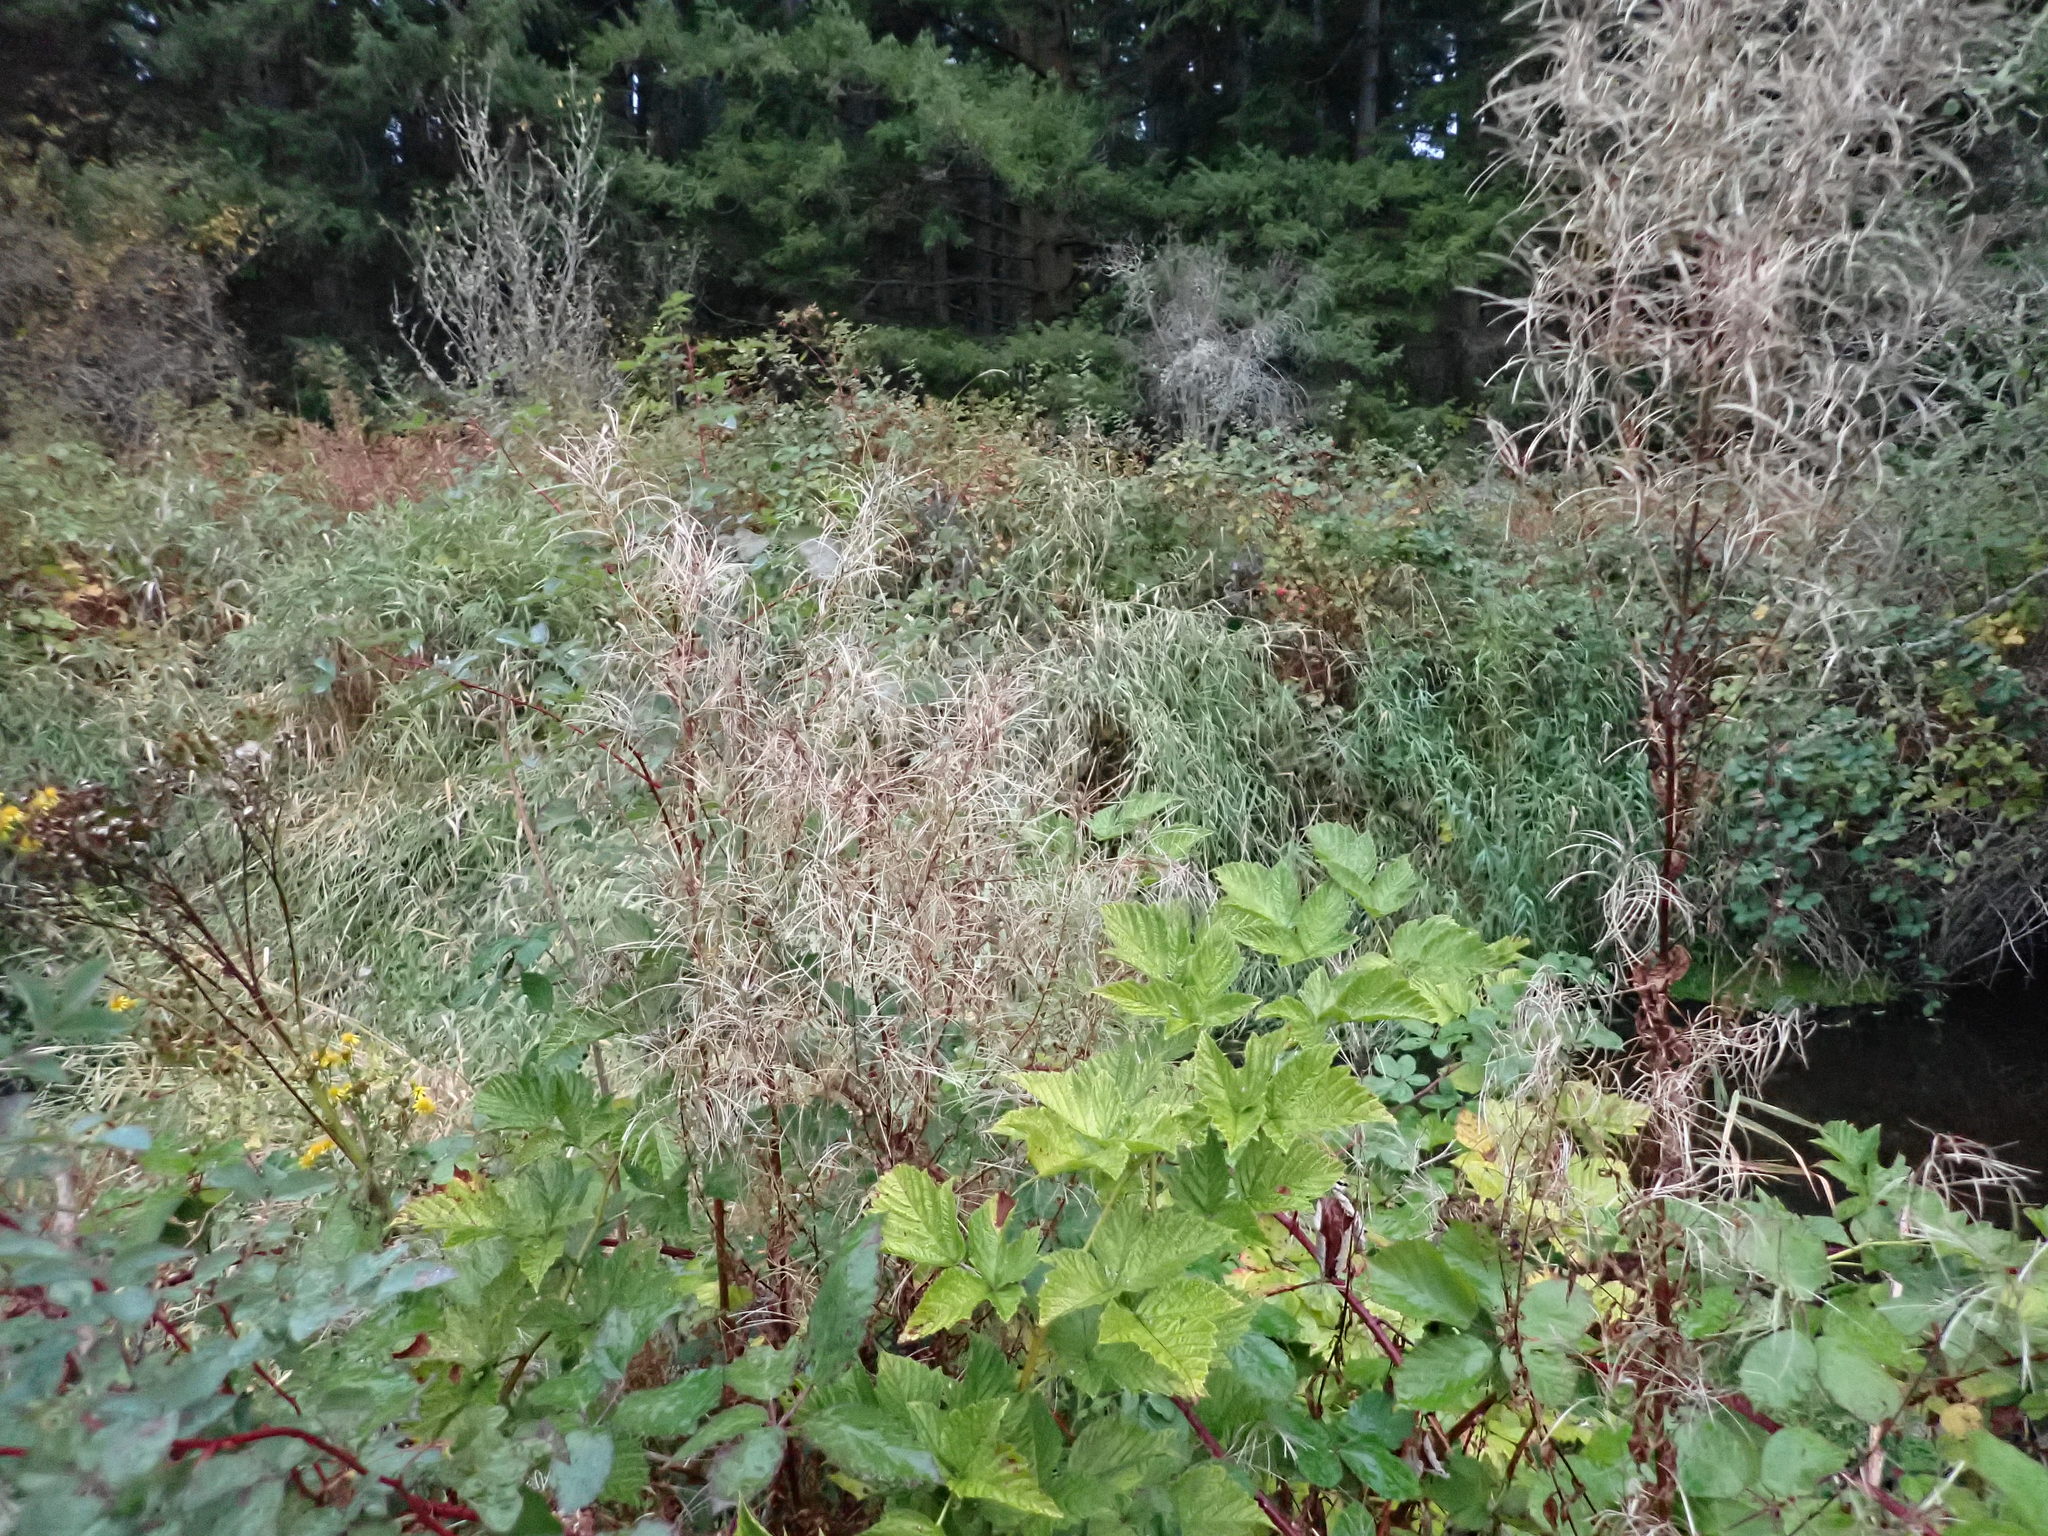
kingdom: Plantae
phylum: Tracheophyta
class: Magnoliopsida
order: Myrtales
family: Onagraceae
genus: Epilobium
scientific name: Epilobium ciliatum
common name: American willowherb
